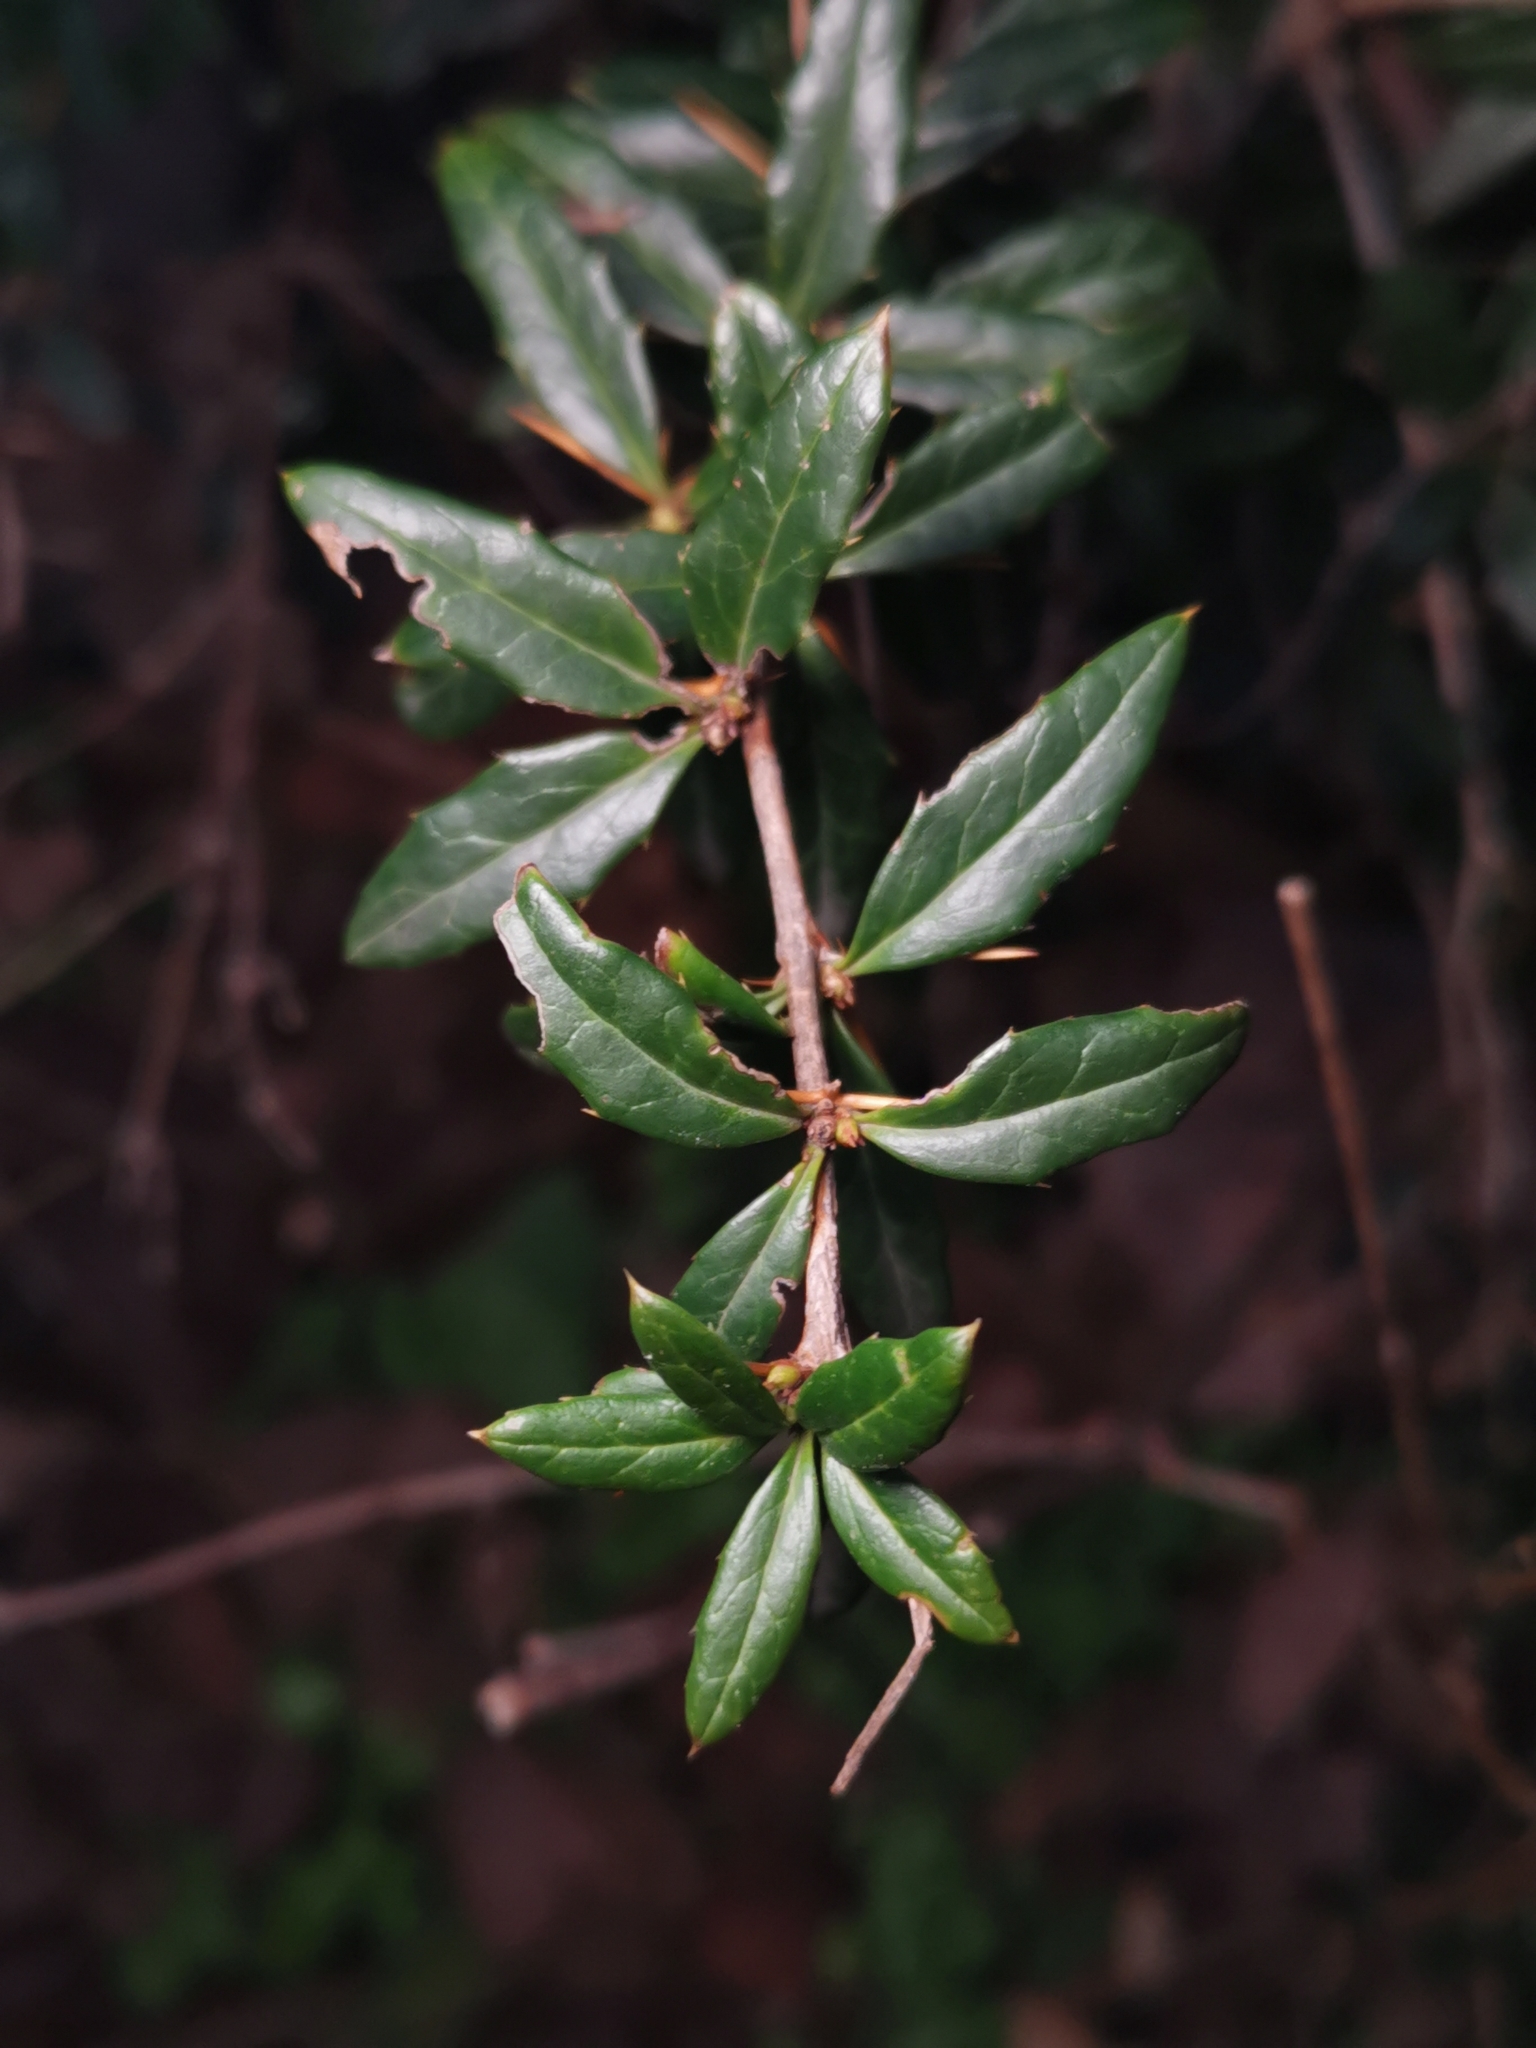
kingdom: Plantae
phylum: Tracheophyta
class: Magnoliopsida
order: Ranunculales
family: Berberidaceae
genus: Berberis
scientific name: Berberis julianae
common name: Wintergreen barberry
